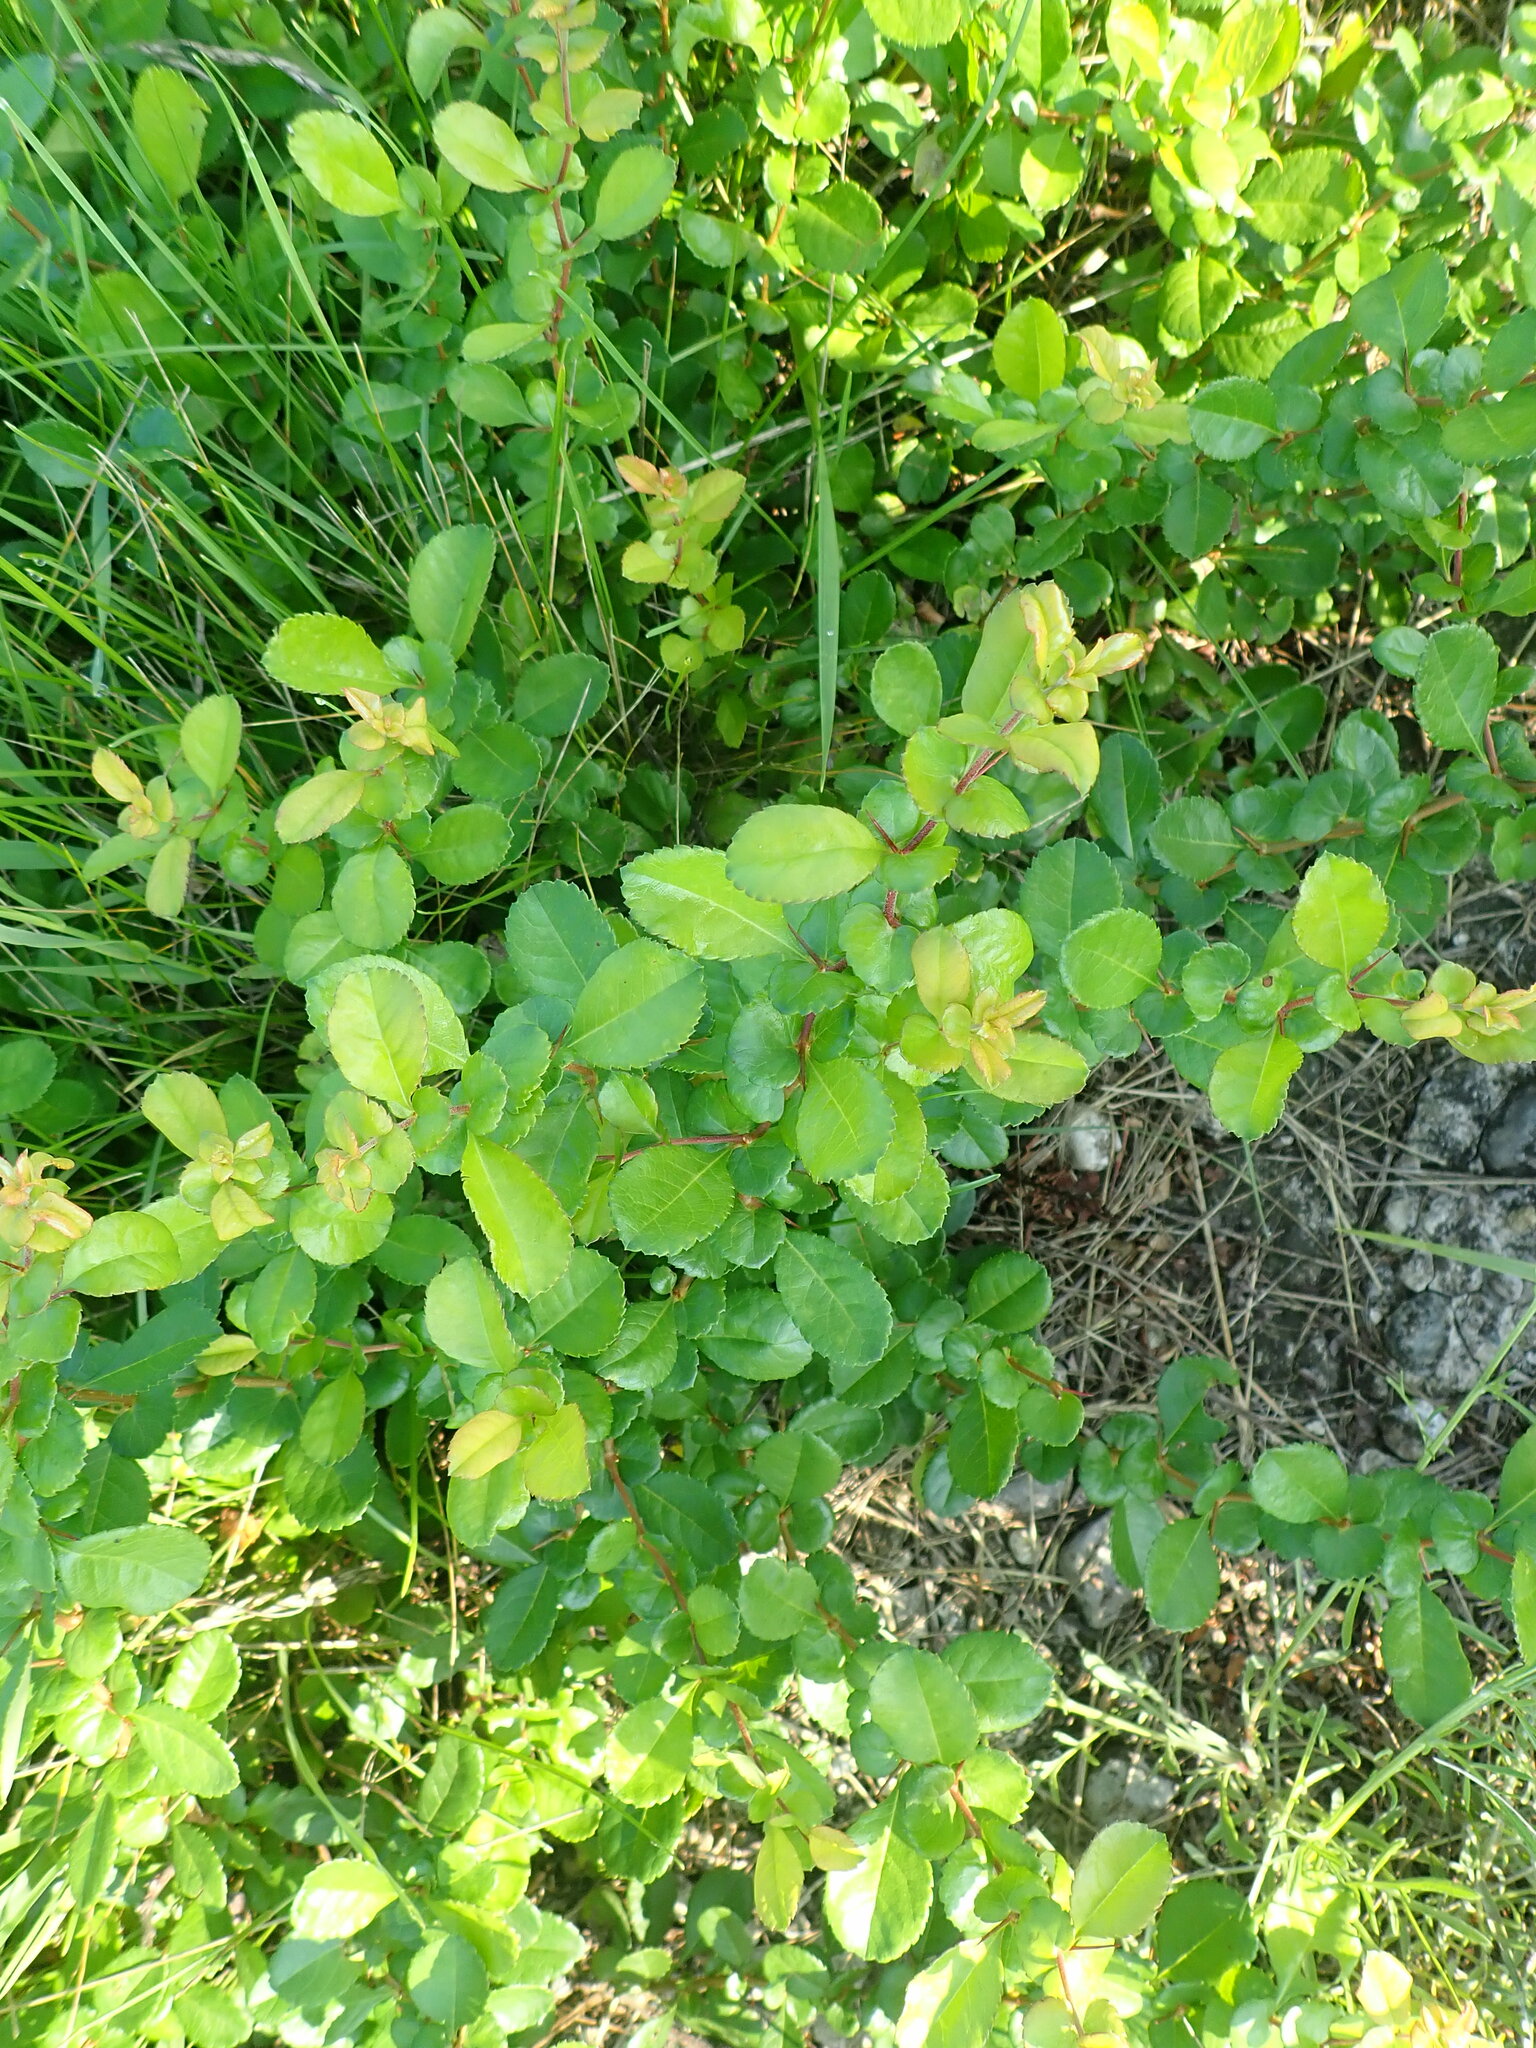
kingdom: Plantae
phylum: Tracheophyta
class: Magnoliopsida
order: Rosales
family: Rosaceae
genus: Chaenomeles
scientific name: Chaenomeles japonica
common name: Japanese quince
